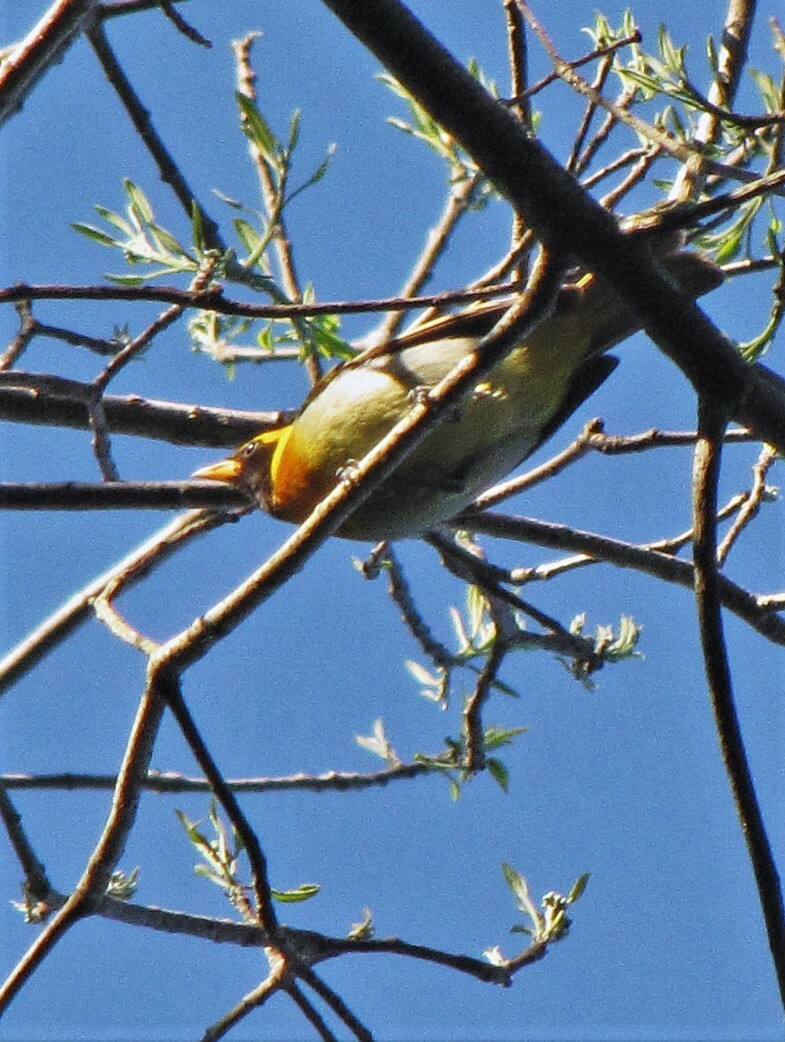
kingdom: Animalia
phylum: Chordata
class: Aves
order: Passeriformes
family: Thraupidae
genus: Hemithraupis
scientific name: Hemithraupis guira
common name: Guira tanager
